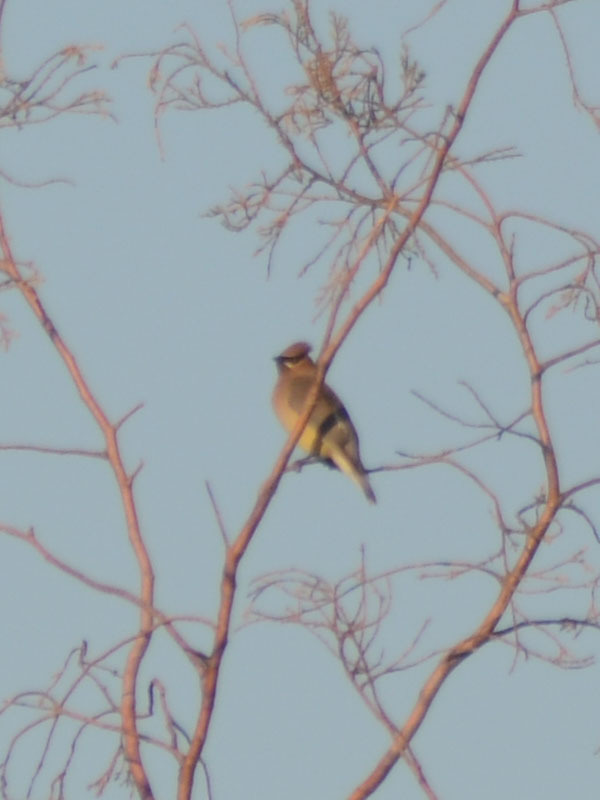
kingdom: Animalia
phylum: Chordata
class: Aves
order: Passeriformes
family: Bombycillidae
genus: Bombycilla
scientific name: Bombycilla cedrorum
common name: Cedar waxwing
